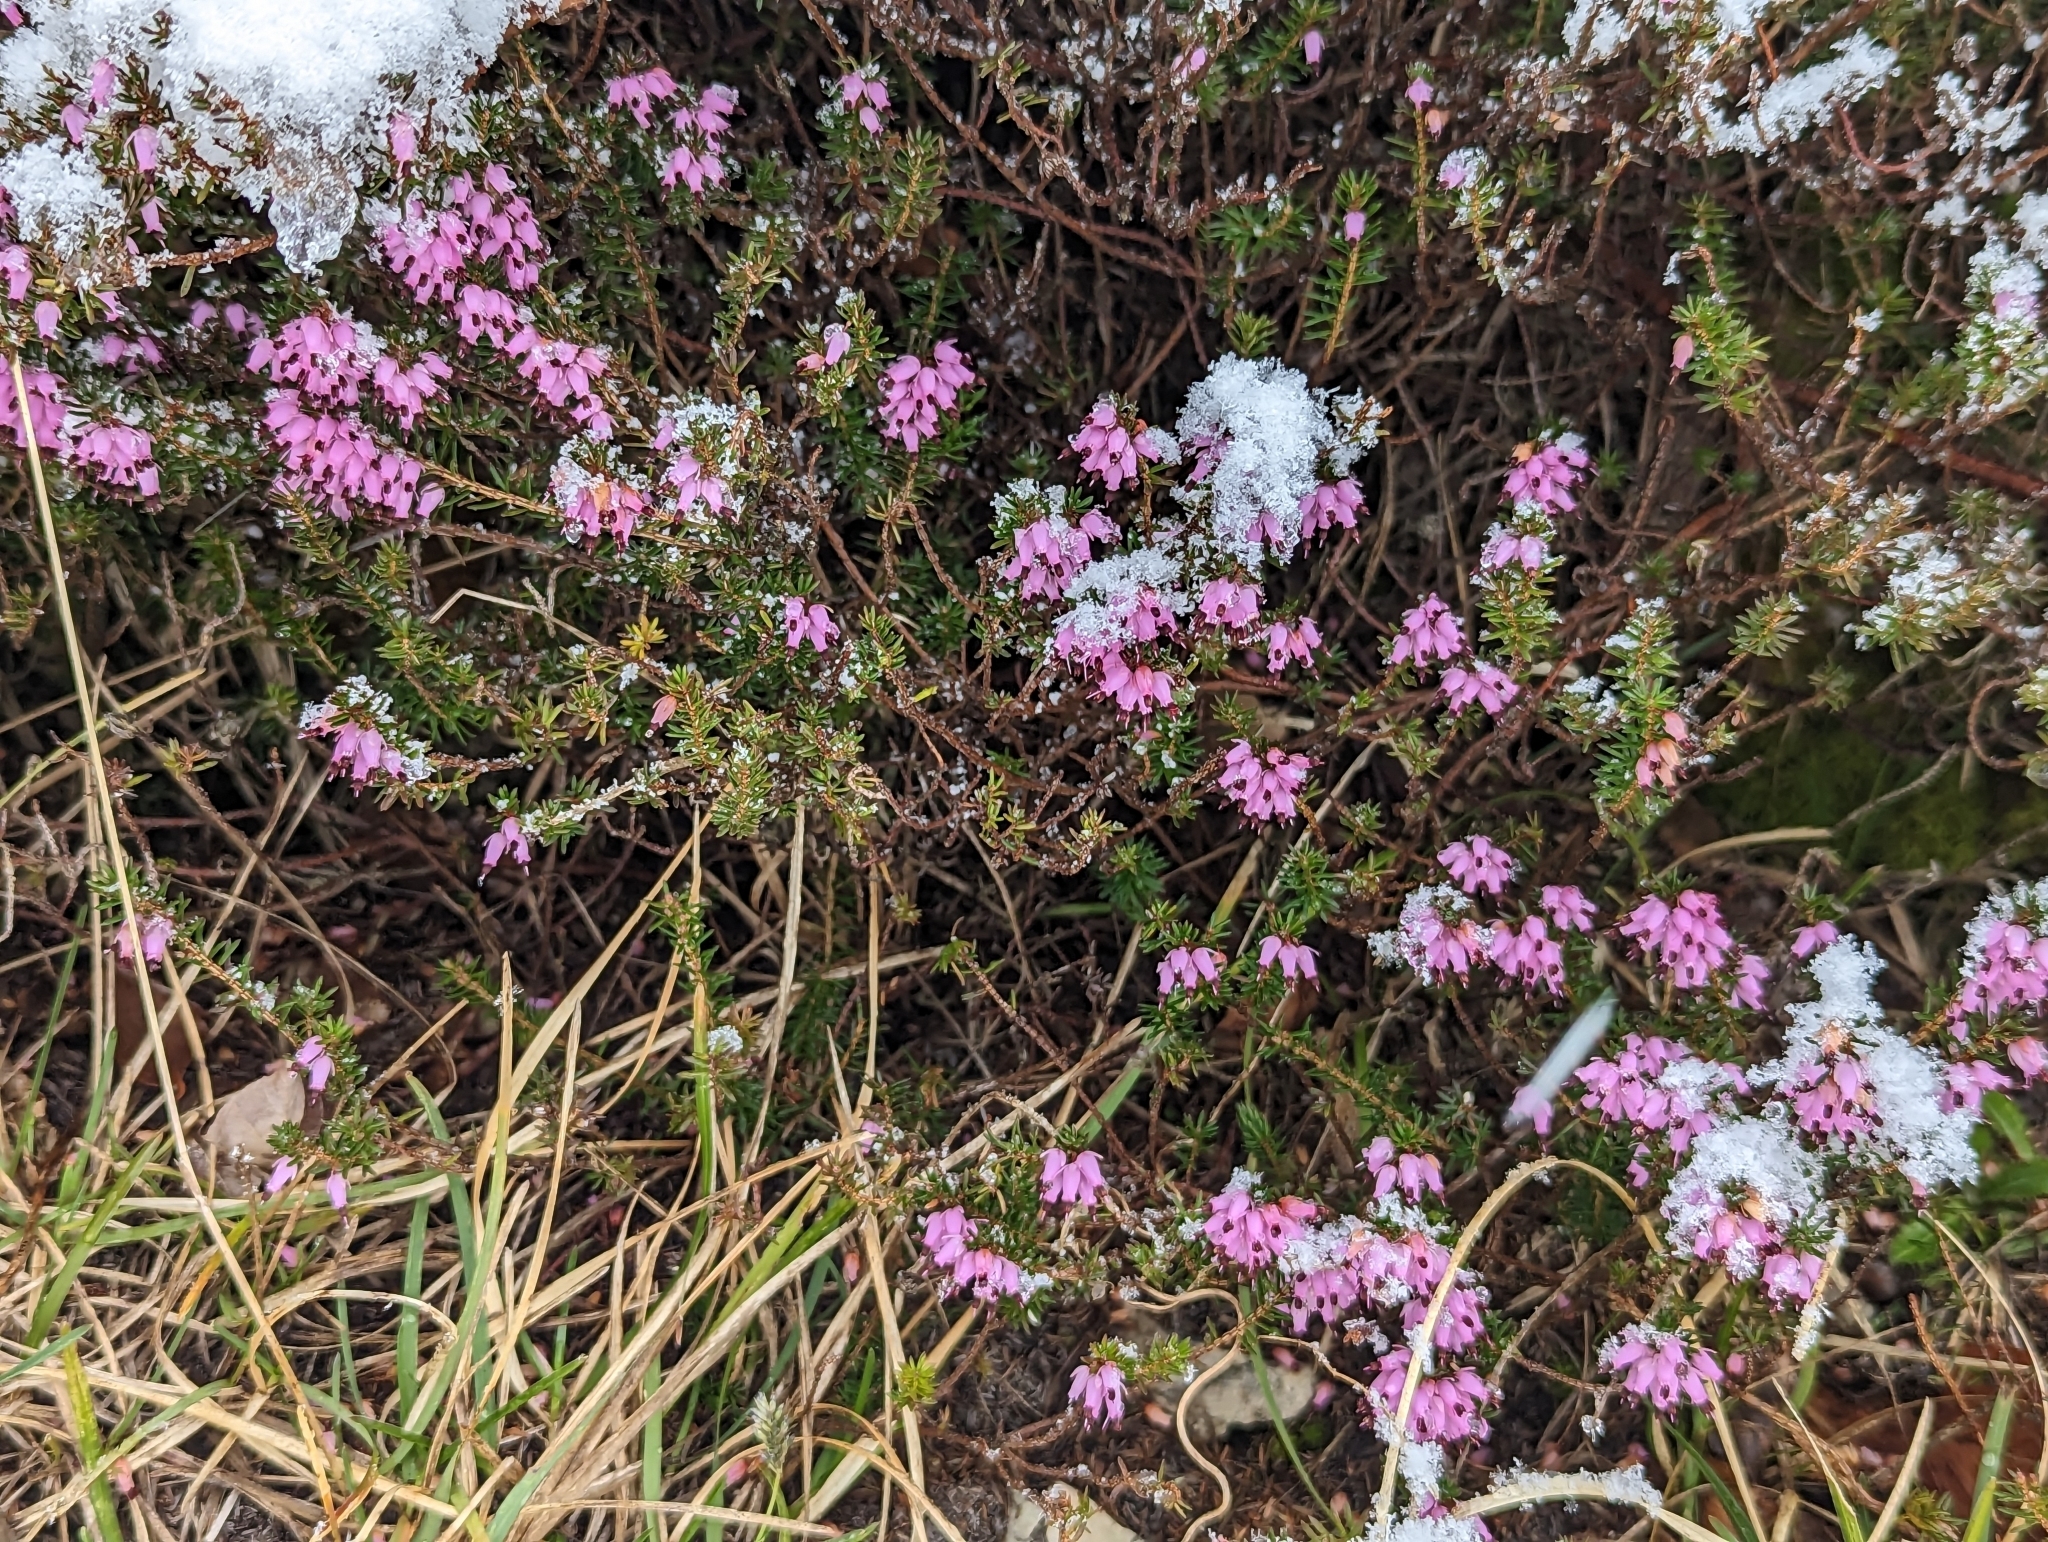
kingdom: Plantae
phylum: Tracheophyta
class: Magnoliopsida
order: Ericales
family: Ericaceae
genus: Erica
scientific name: Erica carnea
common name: Winter heath
